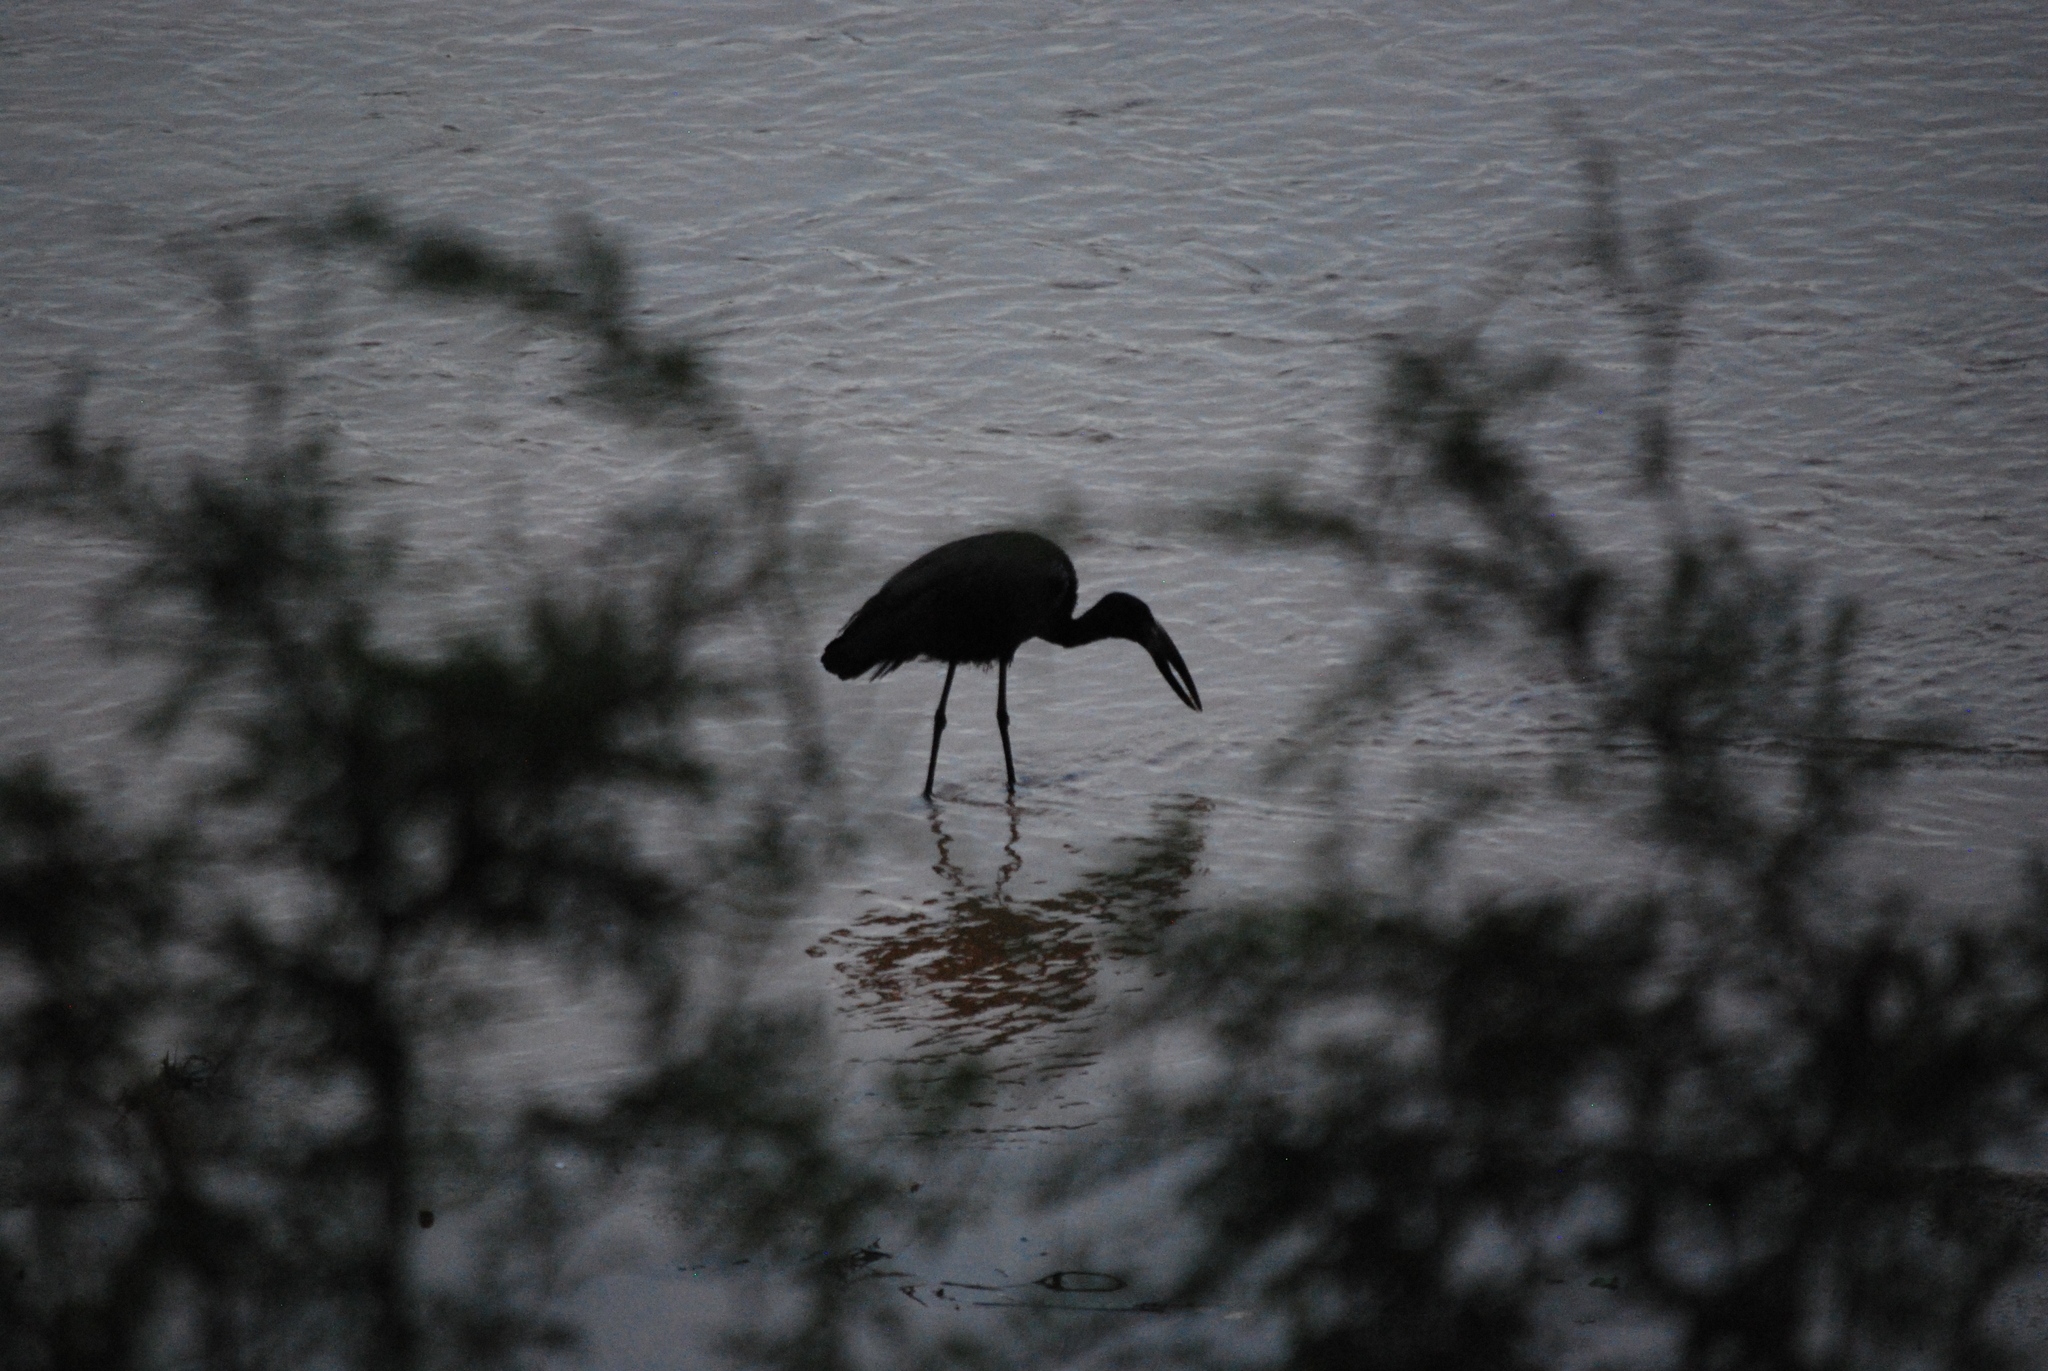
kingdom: Animalia
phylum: Chordata
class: Aves
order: Ciconiiformes
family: Ciconiidae
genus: Anastomus
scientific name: Anastomus lamelligerus
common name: African openbill
